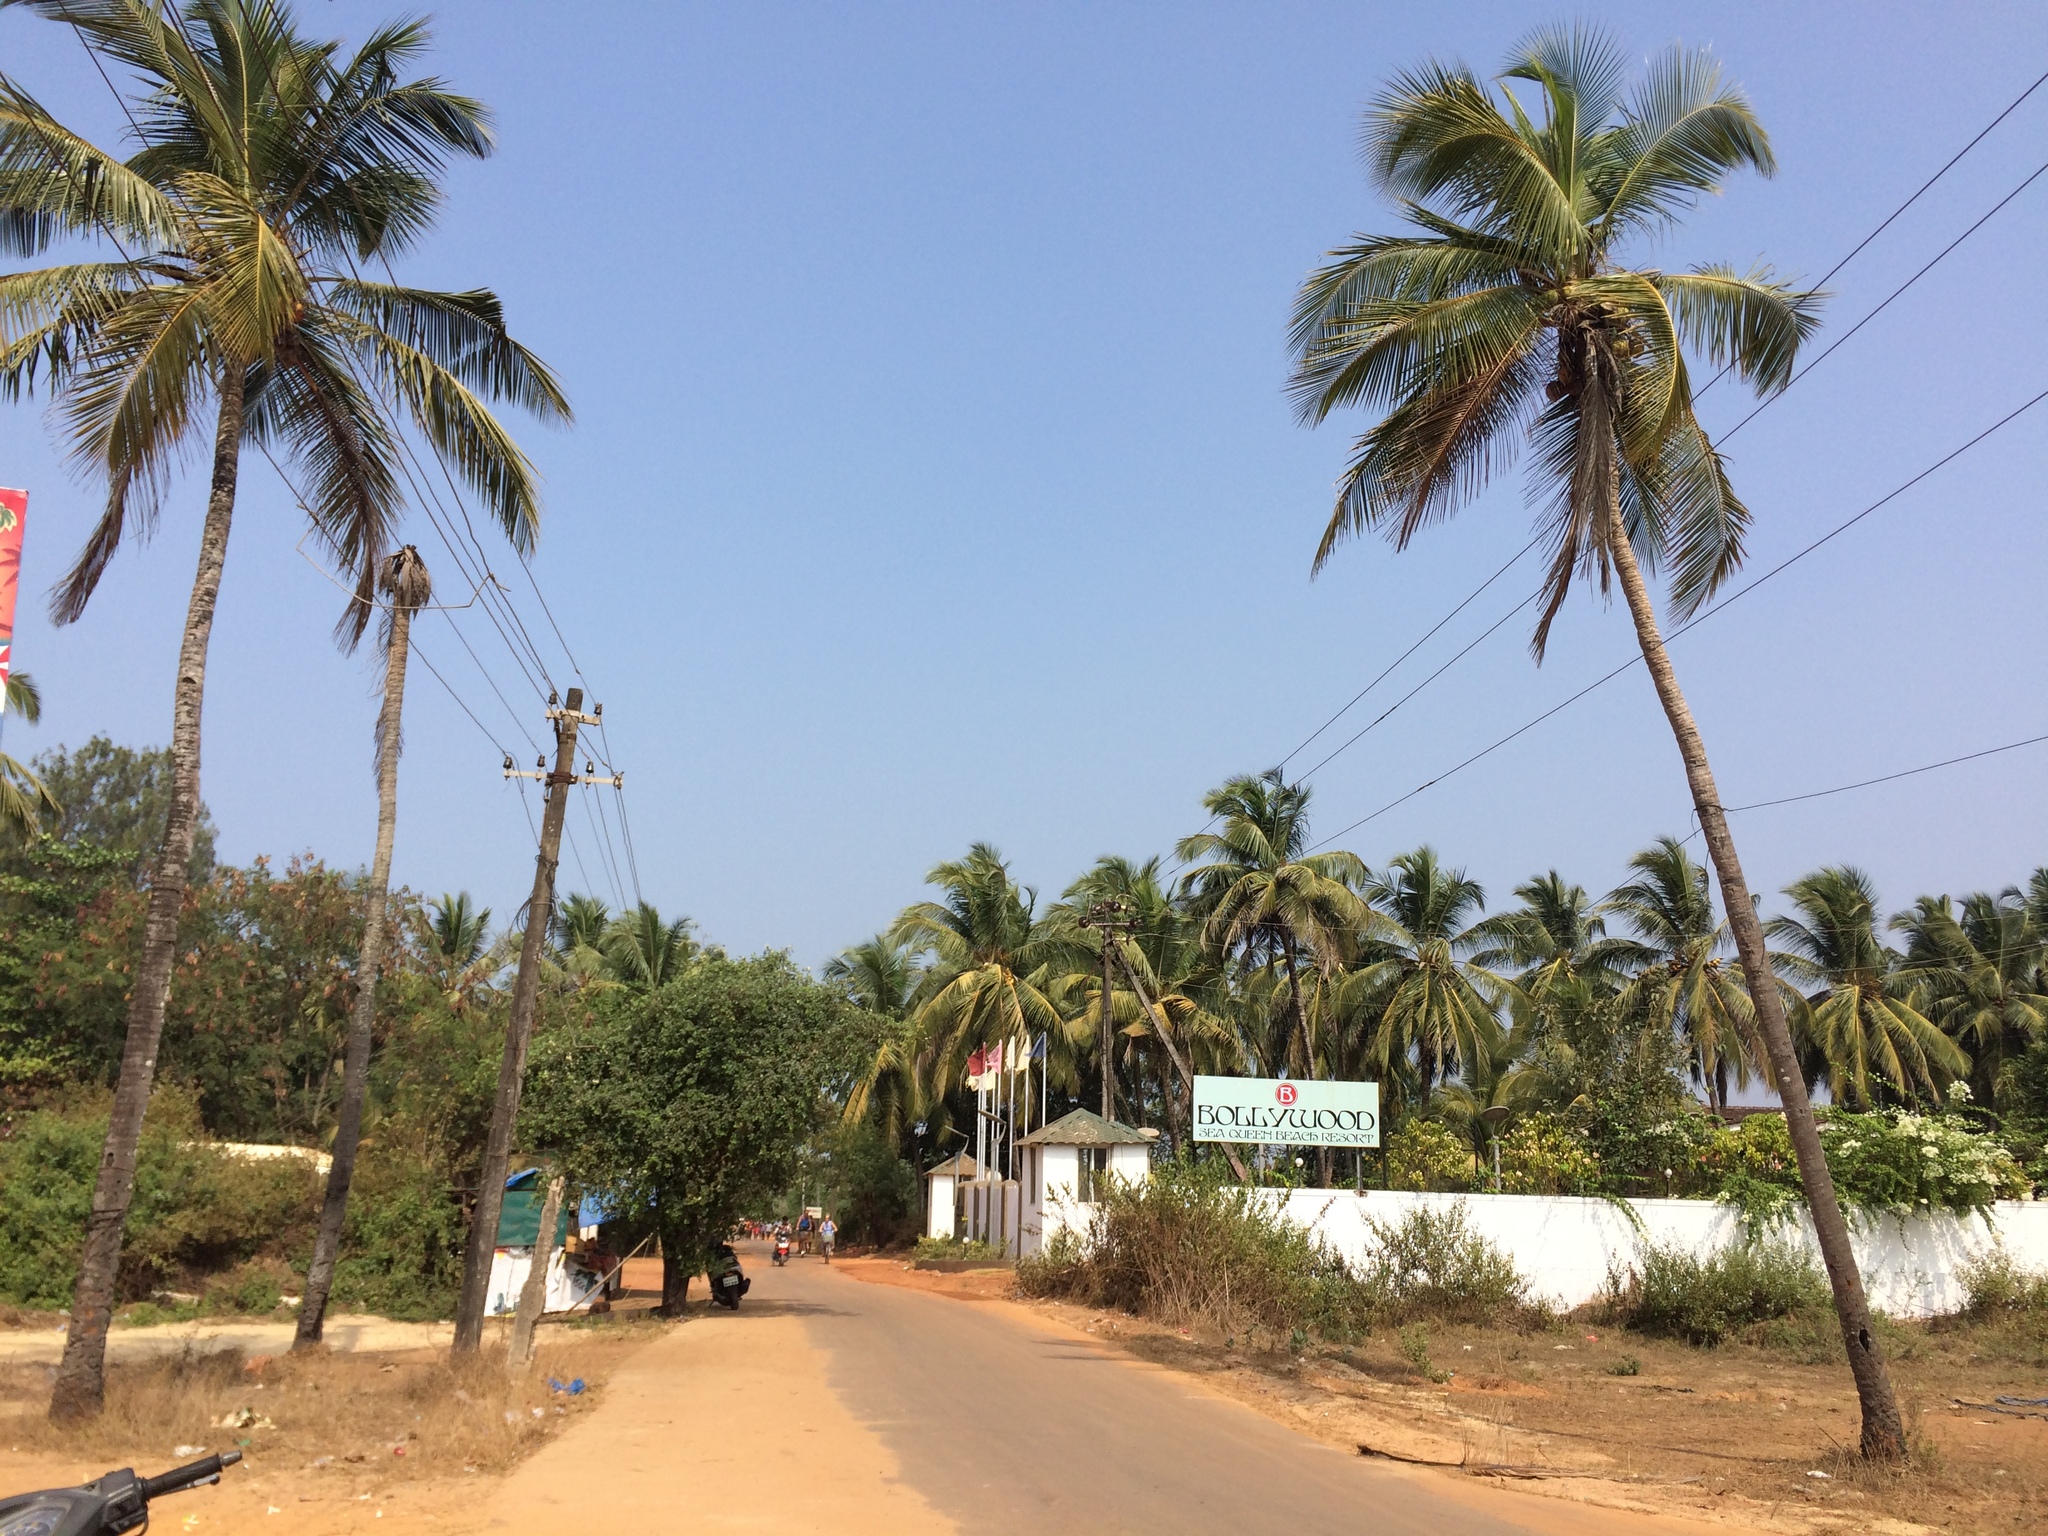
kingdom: Plantae
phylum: Tracheophyta
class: Liliopsida
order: Arecales
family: Arecaceae
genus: Cocos
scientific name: Cocos nucifera
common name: Coconut palm
